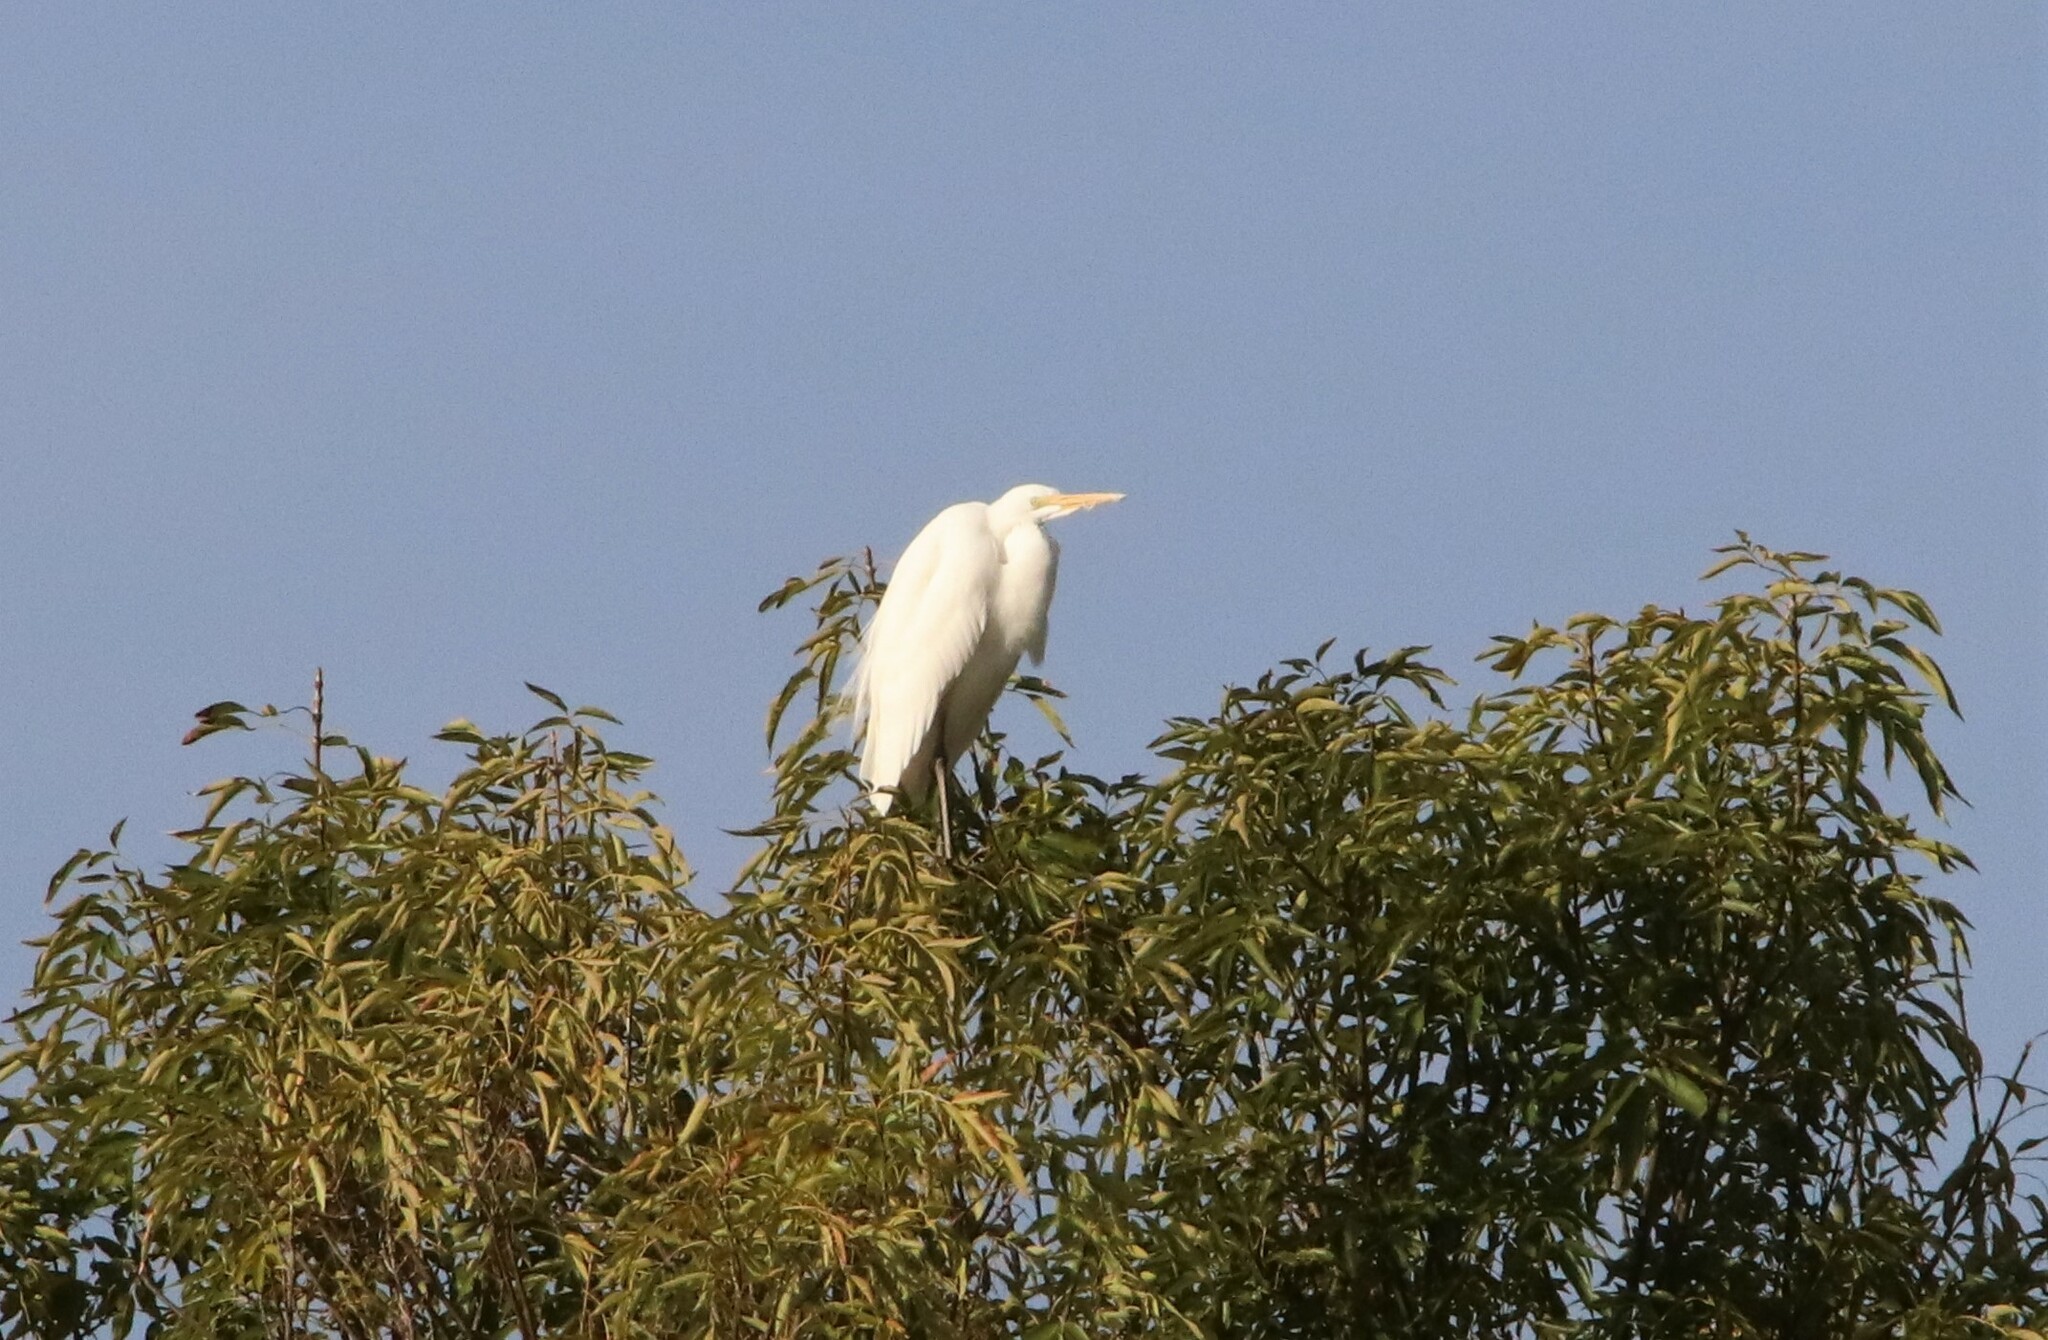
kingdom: Animalia
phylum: Chordata
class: Aves
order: Pelecaniformes
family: Ardeidae
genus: Ardea
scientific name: Ardea alba
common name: Great egret
